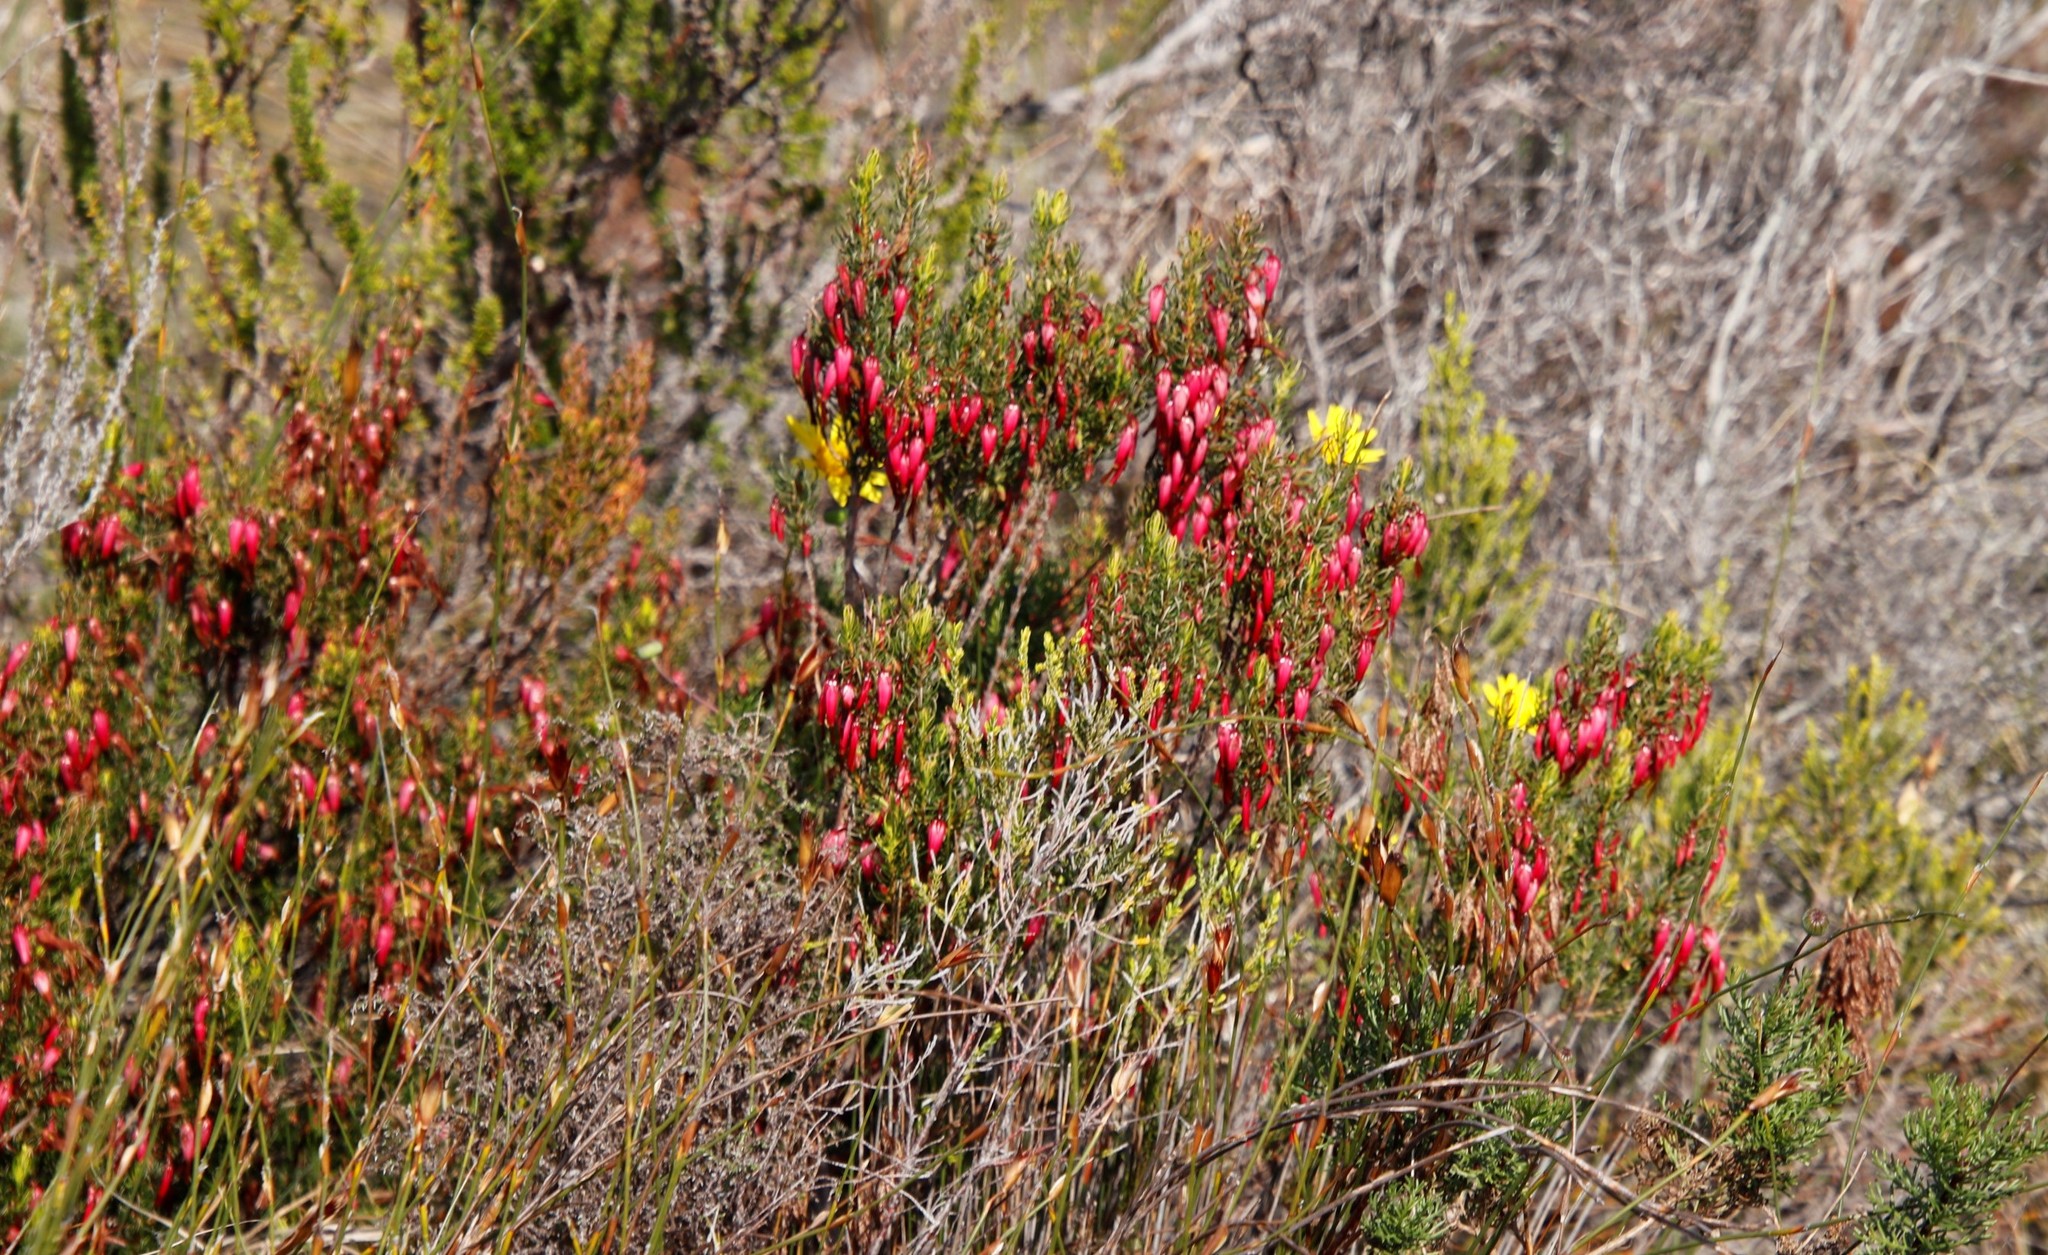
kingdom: Plantae
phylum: Tracheophyta
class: Magnoliopsida
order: Ericales
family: Ericaceae
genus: Erica
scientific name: Erica plukenetii
